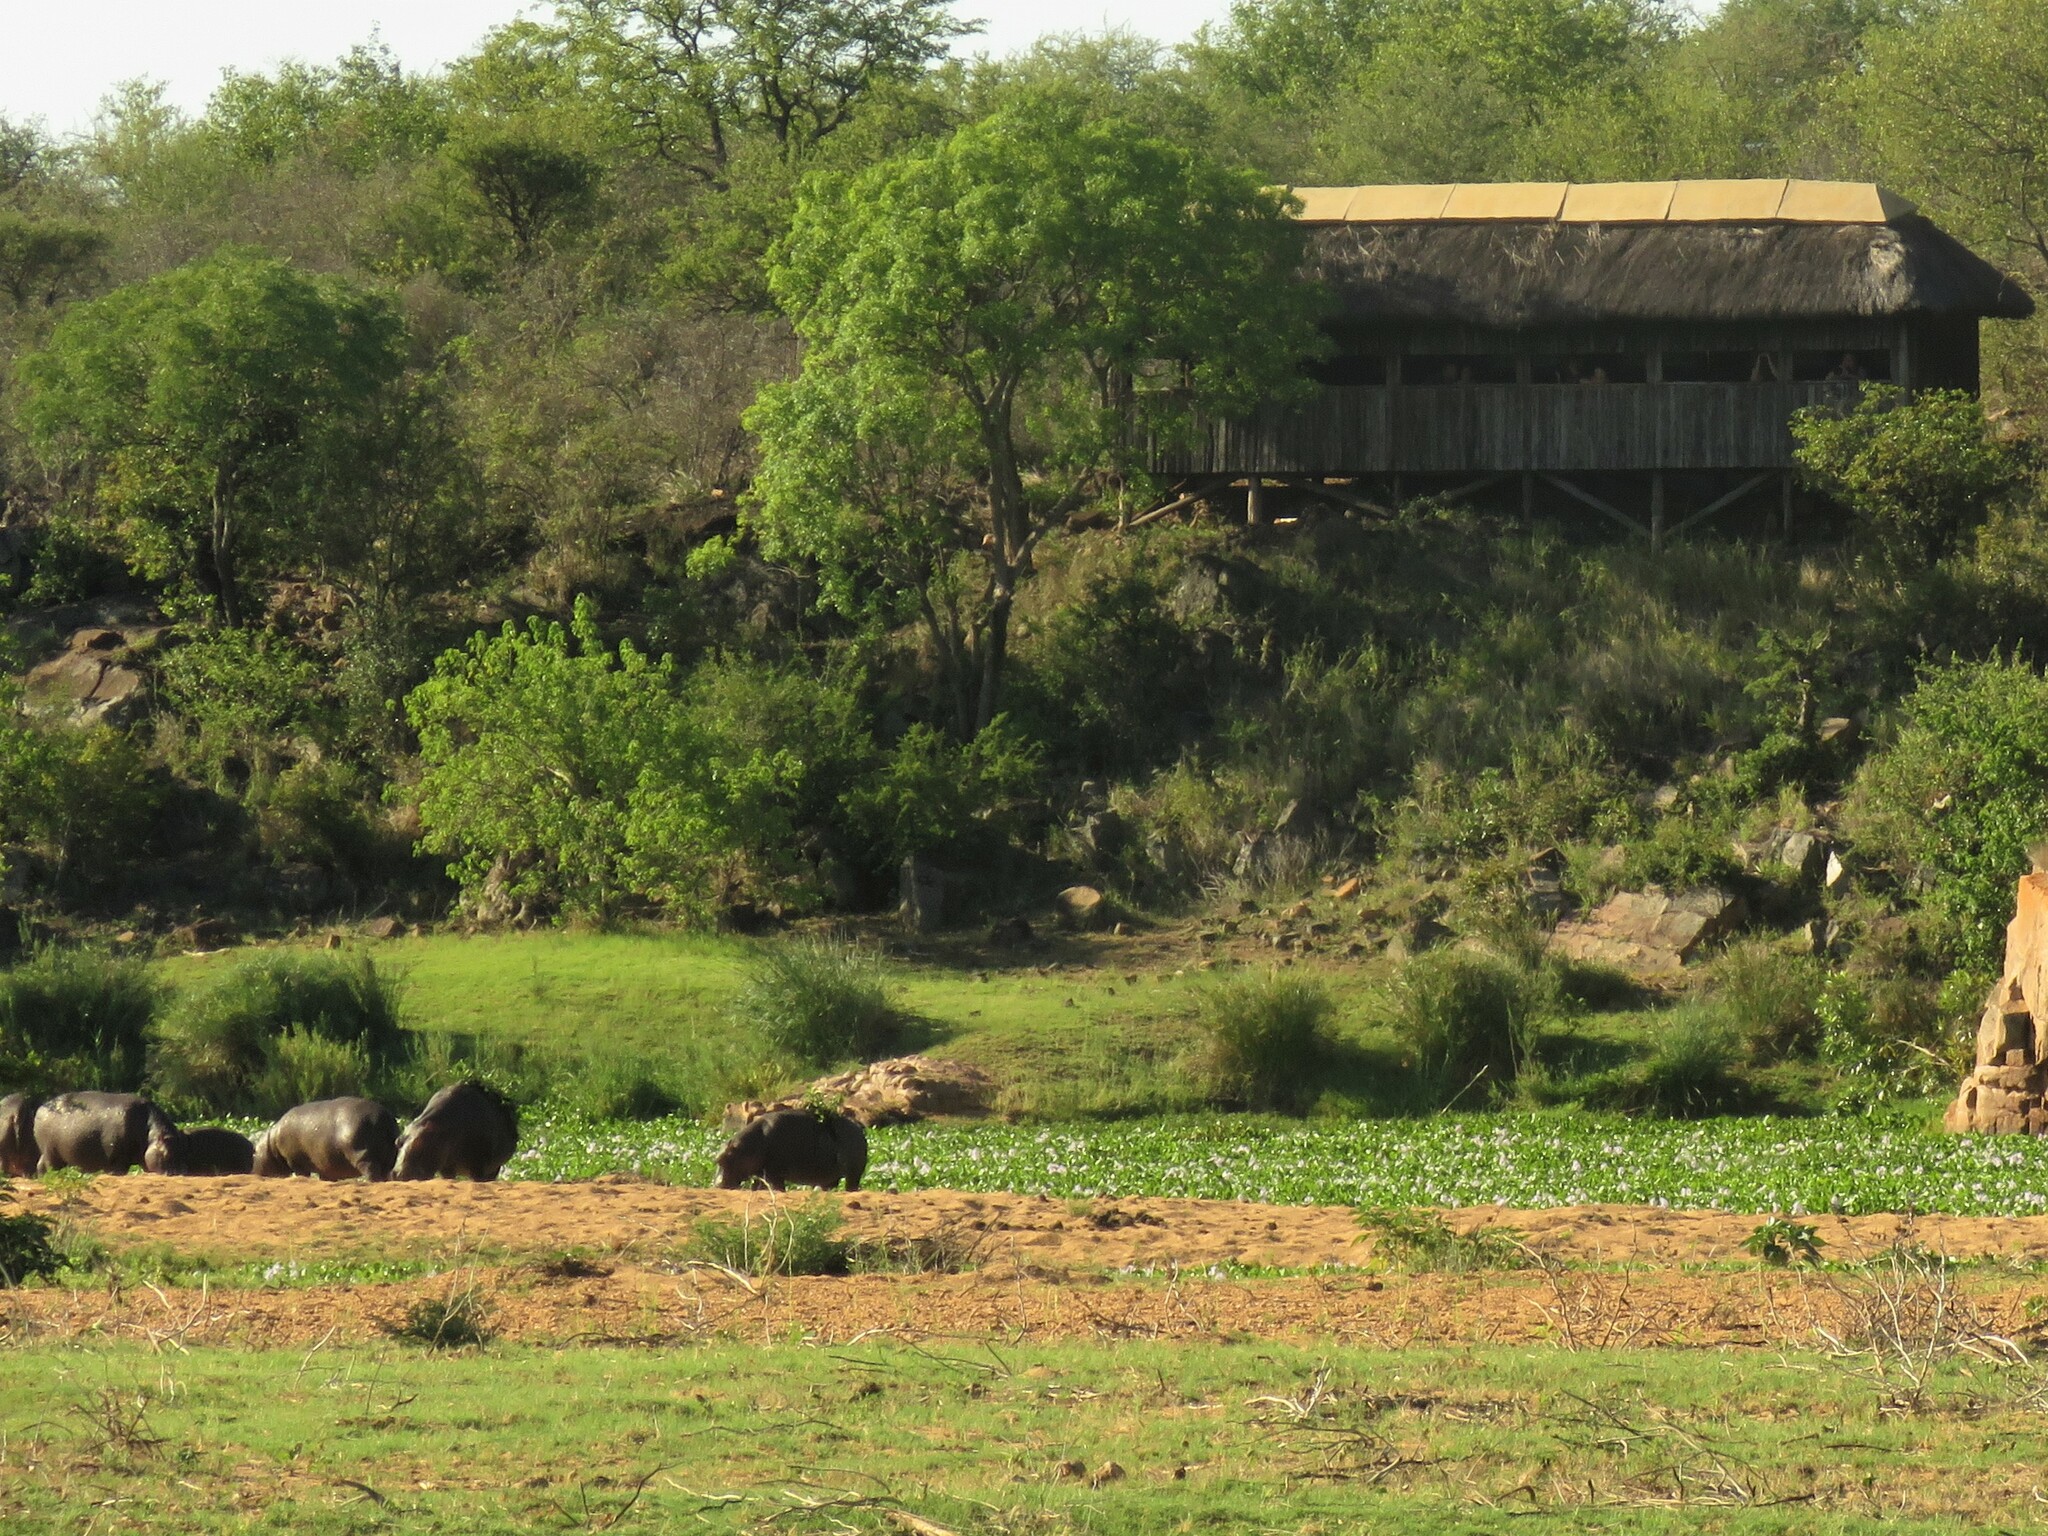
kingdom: Animalia
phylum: Chordata
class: Mammalia
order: Artiodactyla
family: Hippopotamidae
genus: Hippopotamus
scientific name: Hippopotamus amphibius
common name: Common hippopotamus
